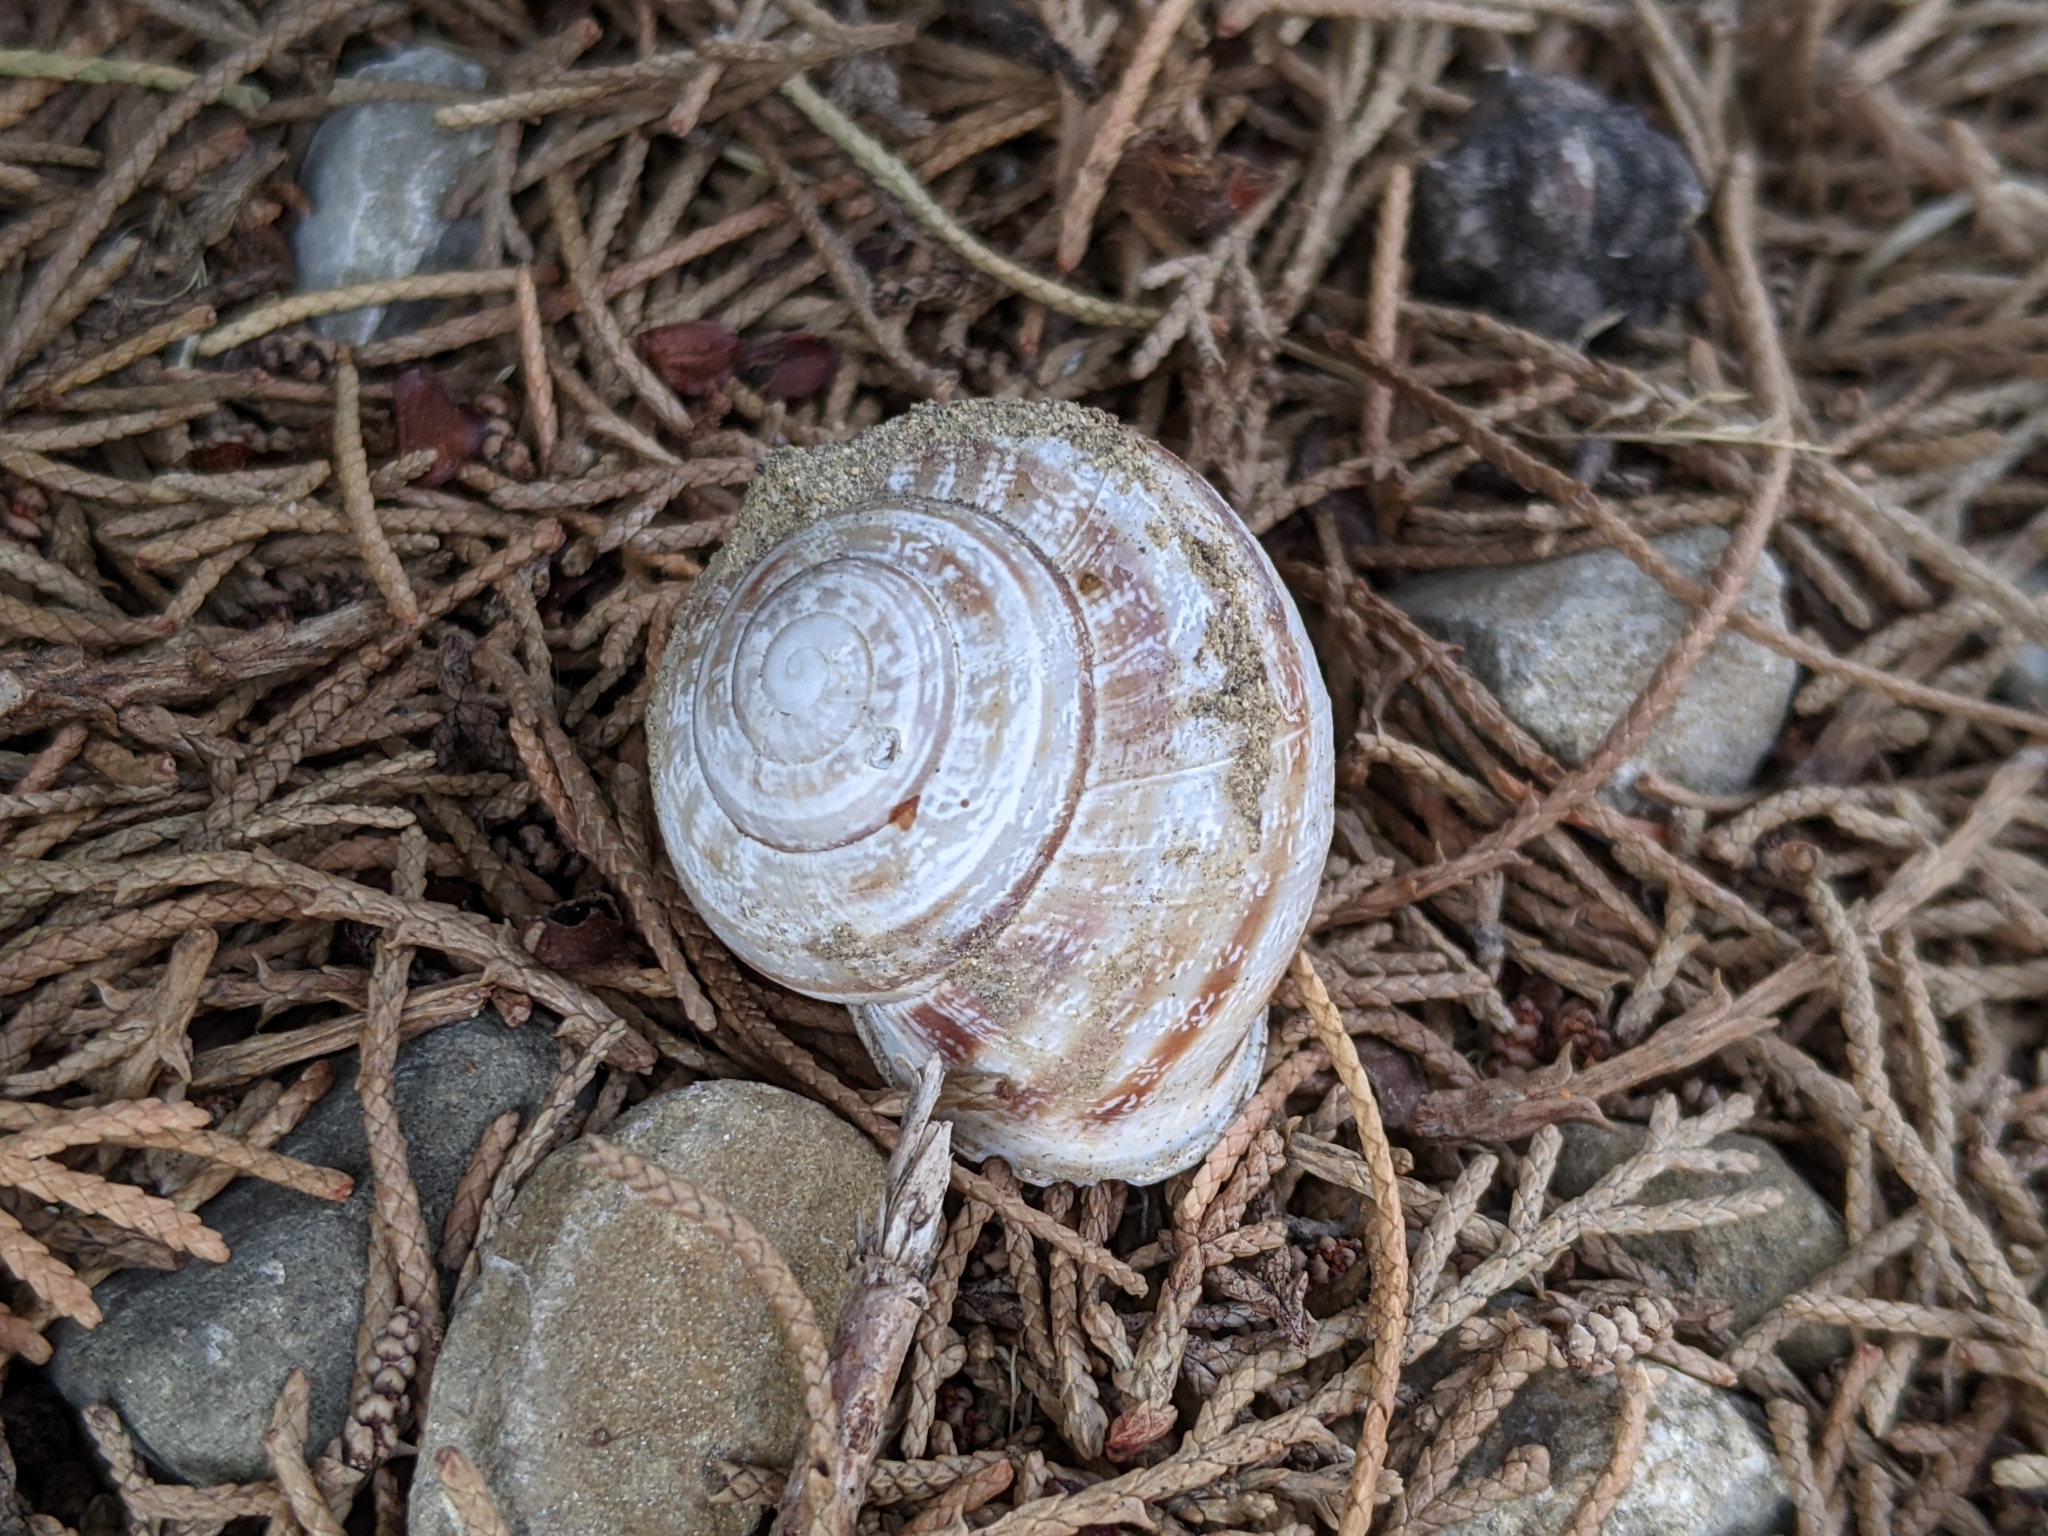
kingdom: Animalia
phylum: Mollusca
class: Gastropoda
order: Stylommatophora
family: Helicidae
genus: Eobania
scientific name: Eobania vermiculata
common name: Chocolateband snail
